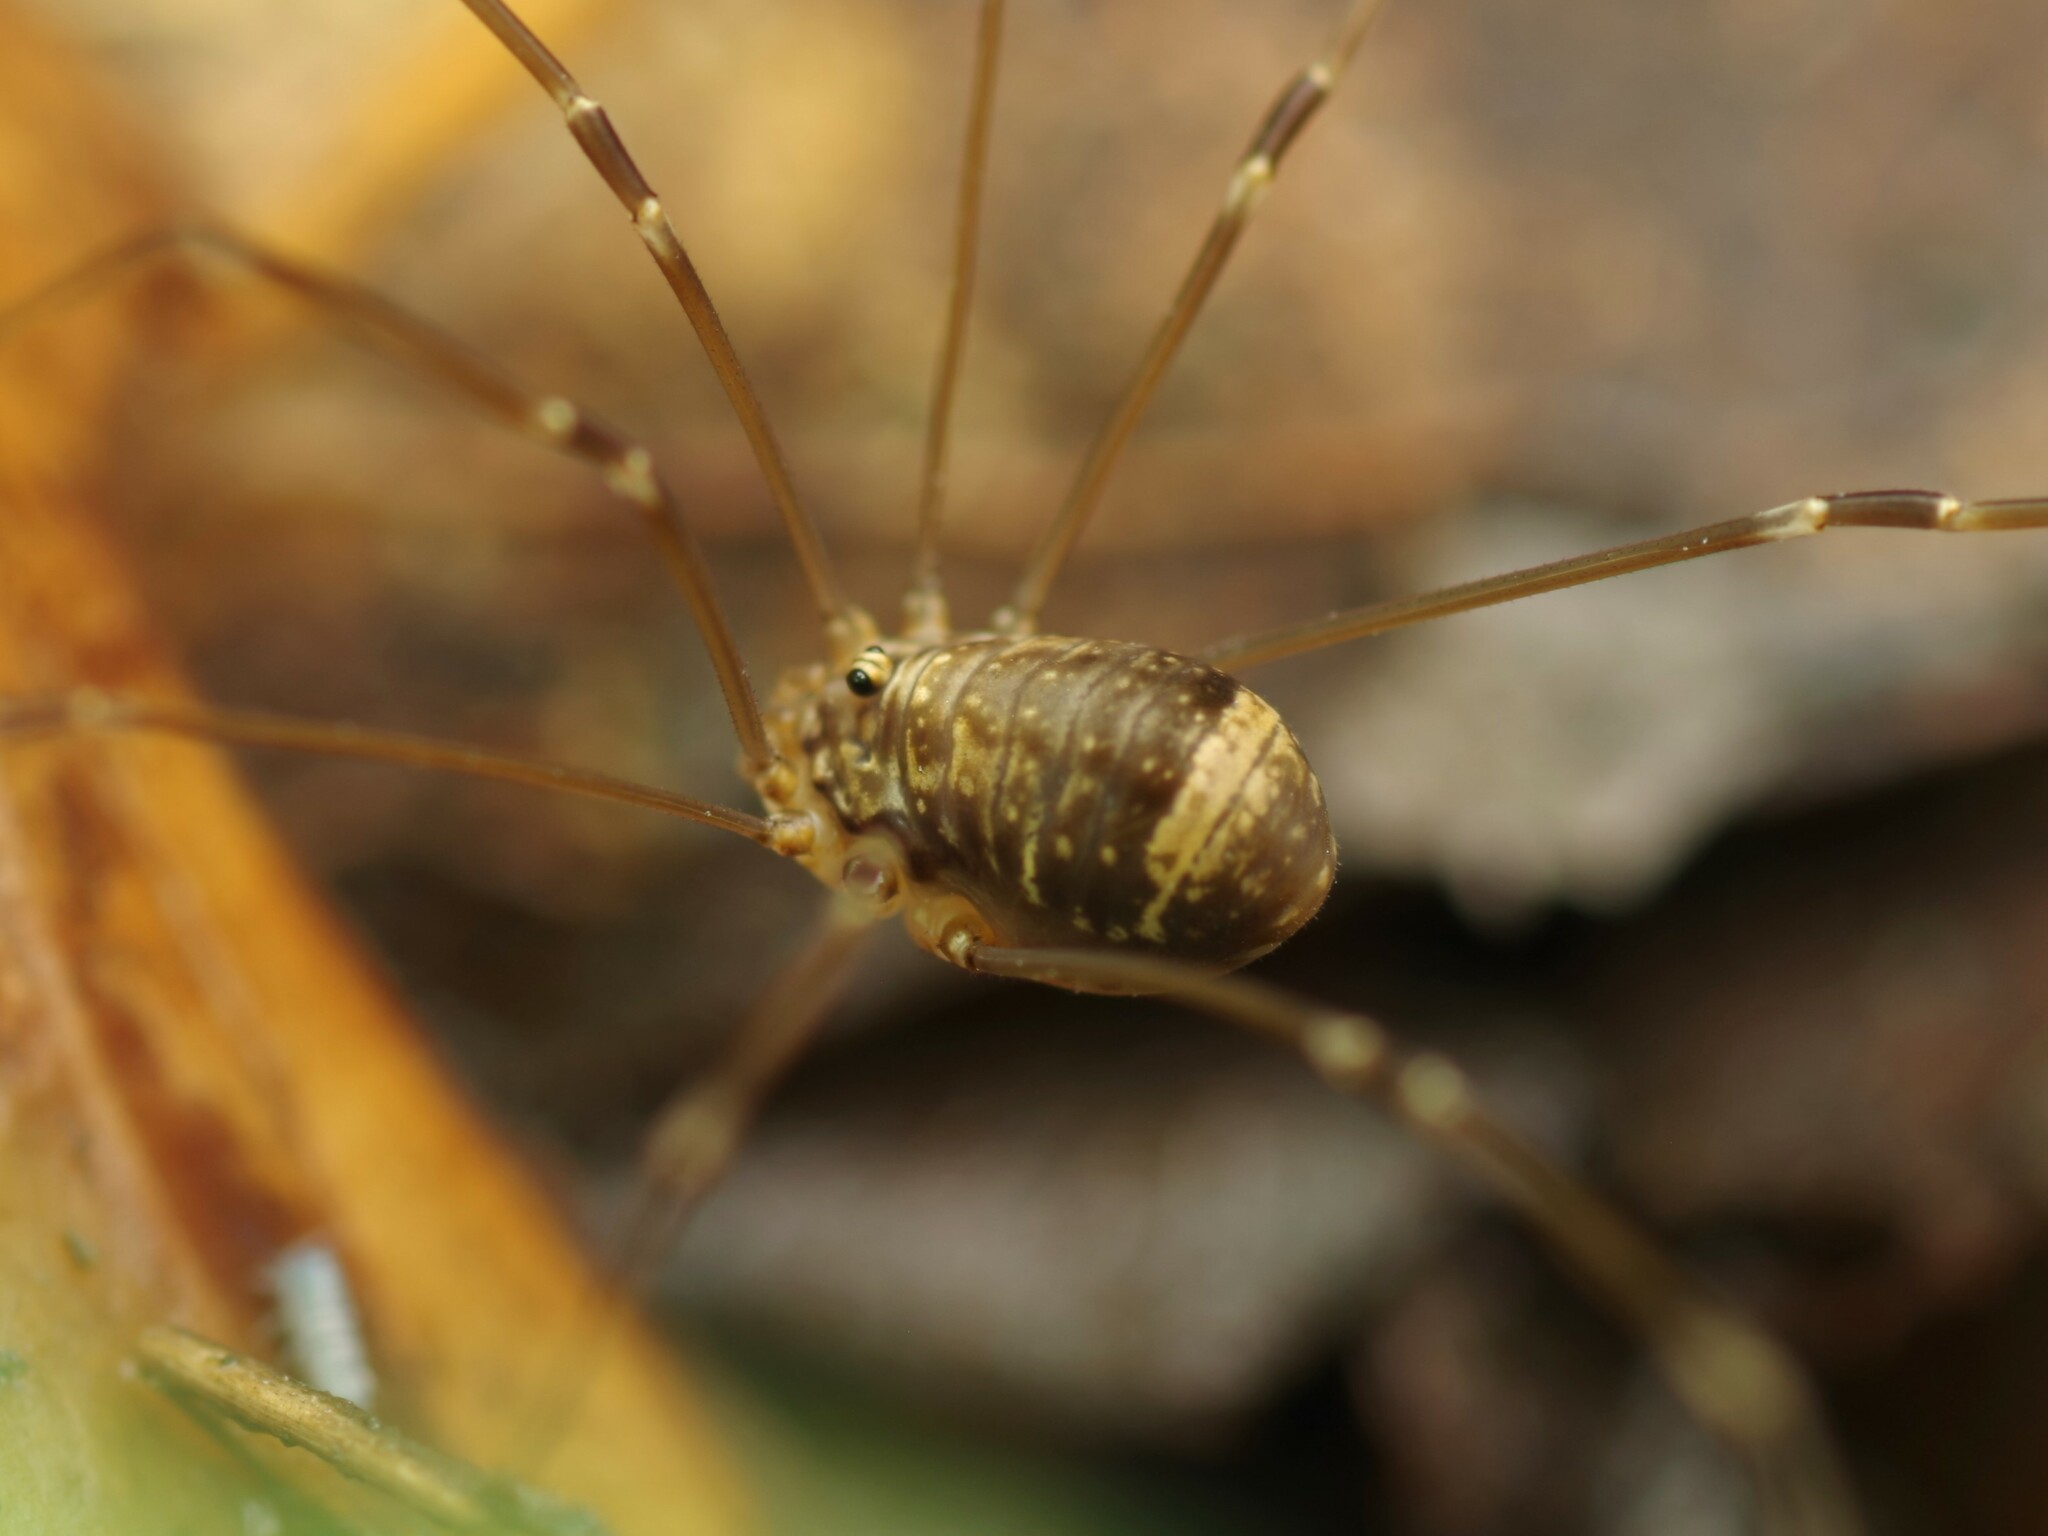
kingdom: Animalia
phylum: Arthropoda
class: Arachnida
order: Opiliones
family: Sclerosomatidae
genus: Leiobunum
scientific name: Leiobunum blackwalli
